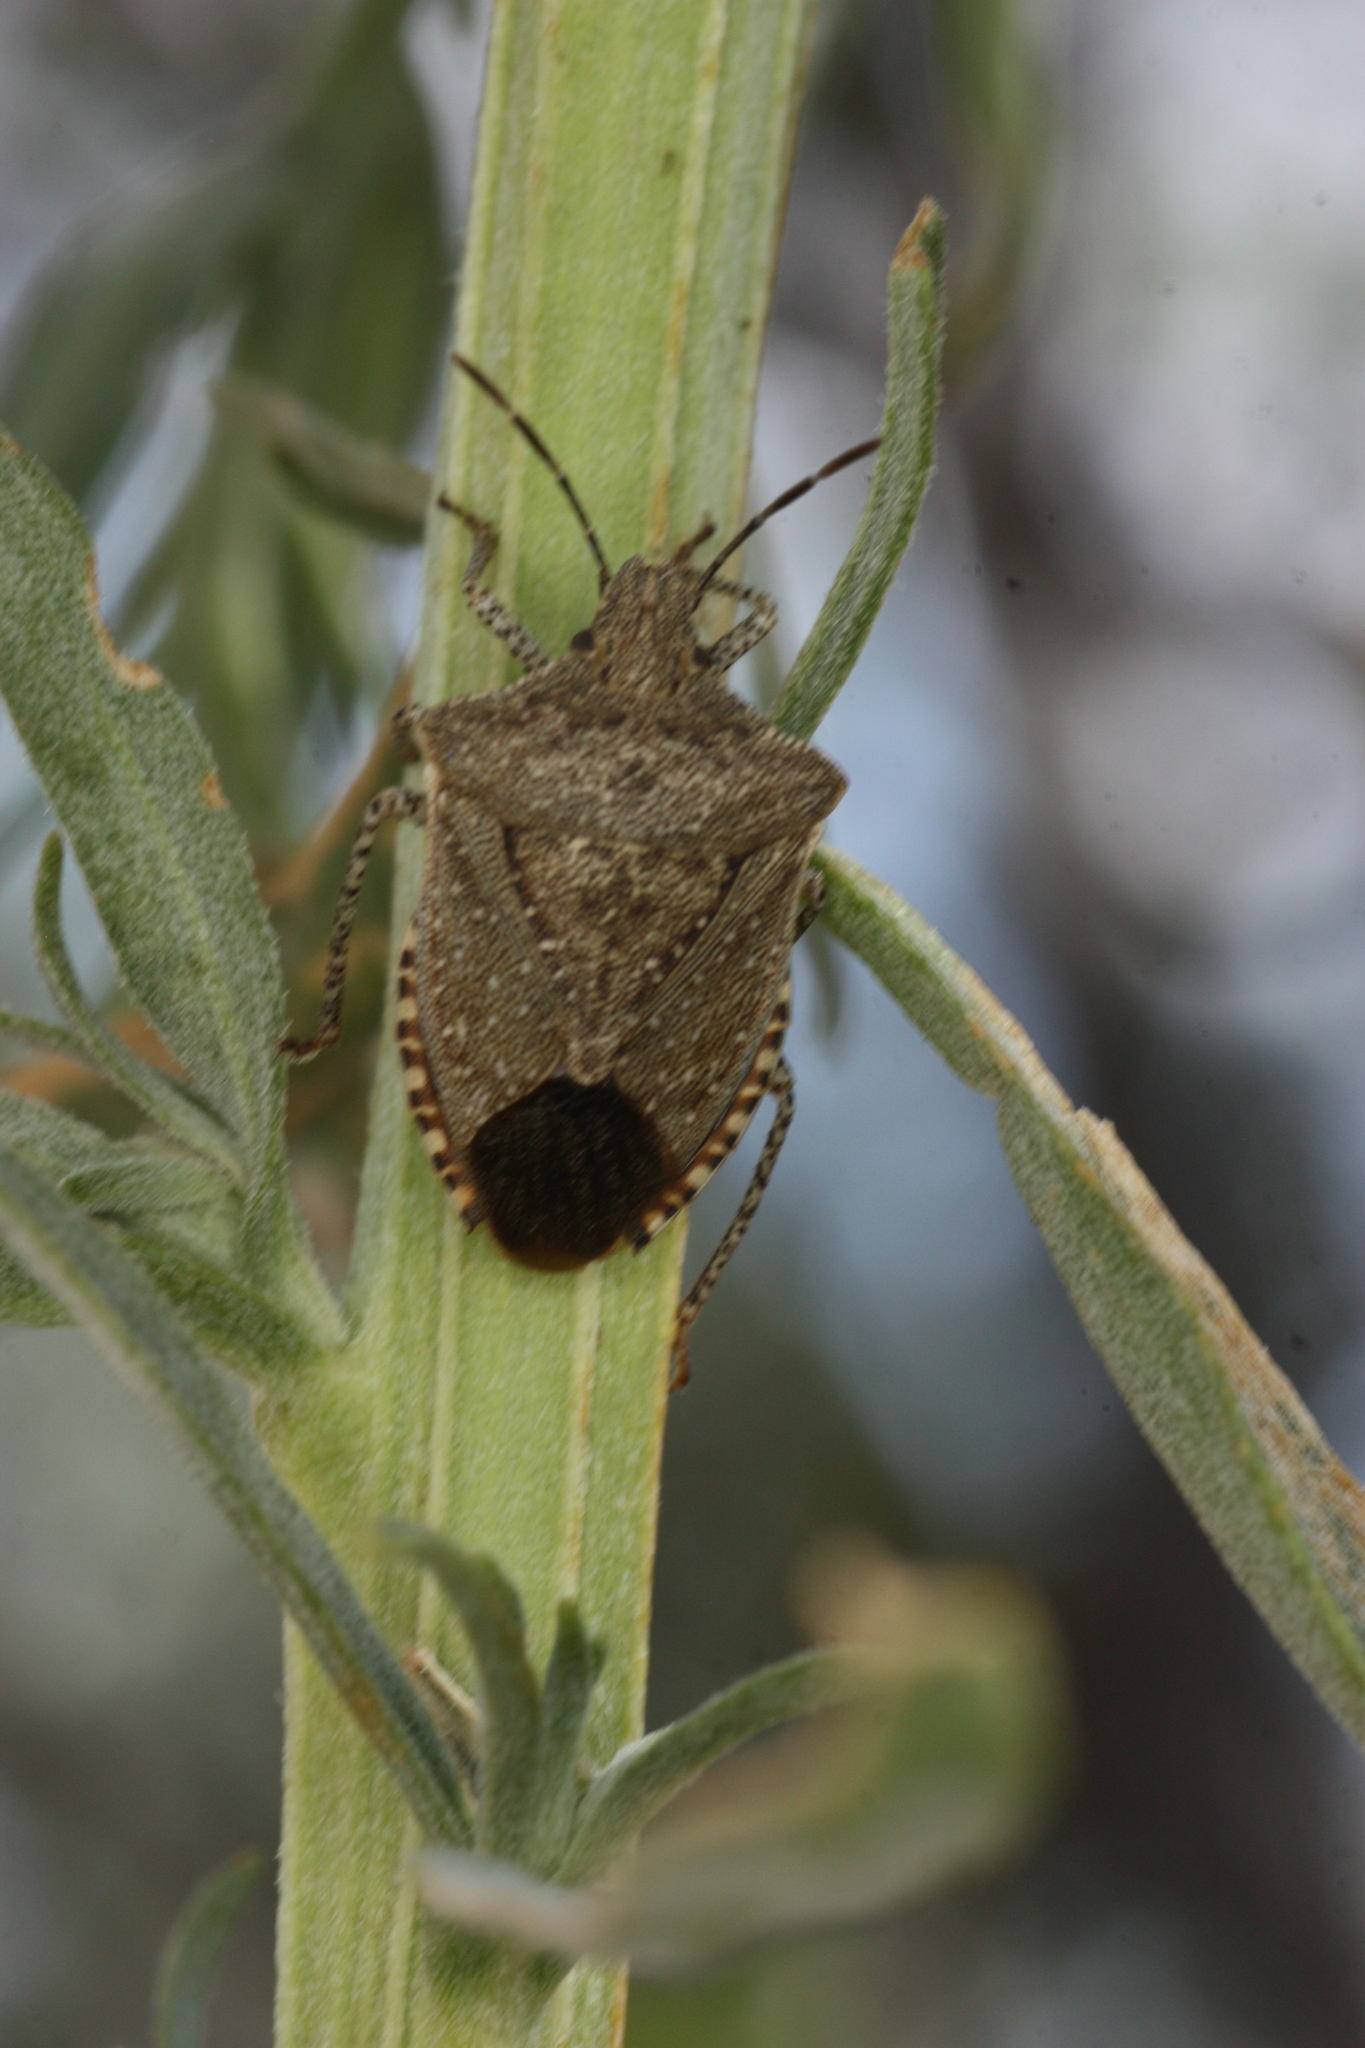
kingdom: Animalia
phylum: Arthropoda
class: Insecta
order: Hemiptera
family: Pentatomidae
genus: Euschistus
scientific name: Euschistus biformis
